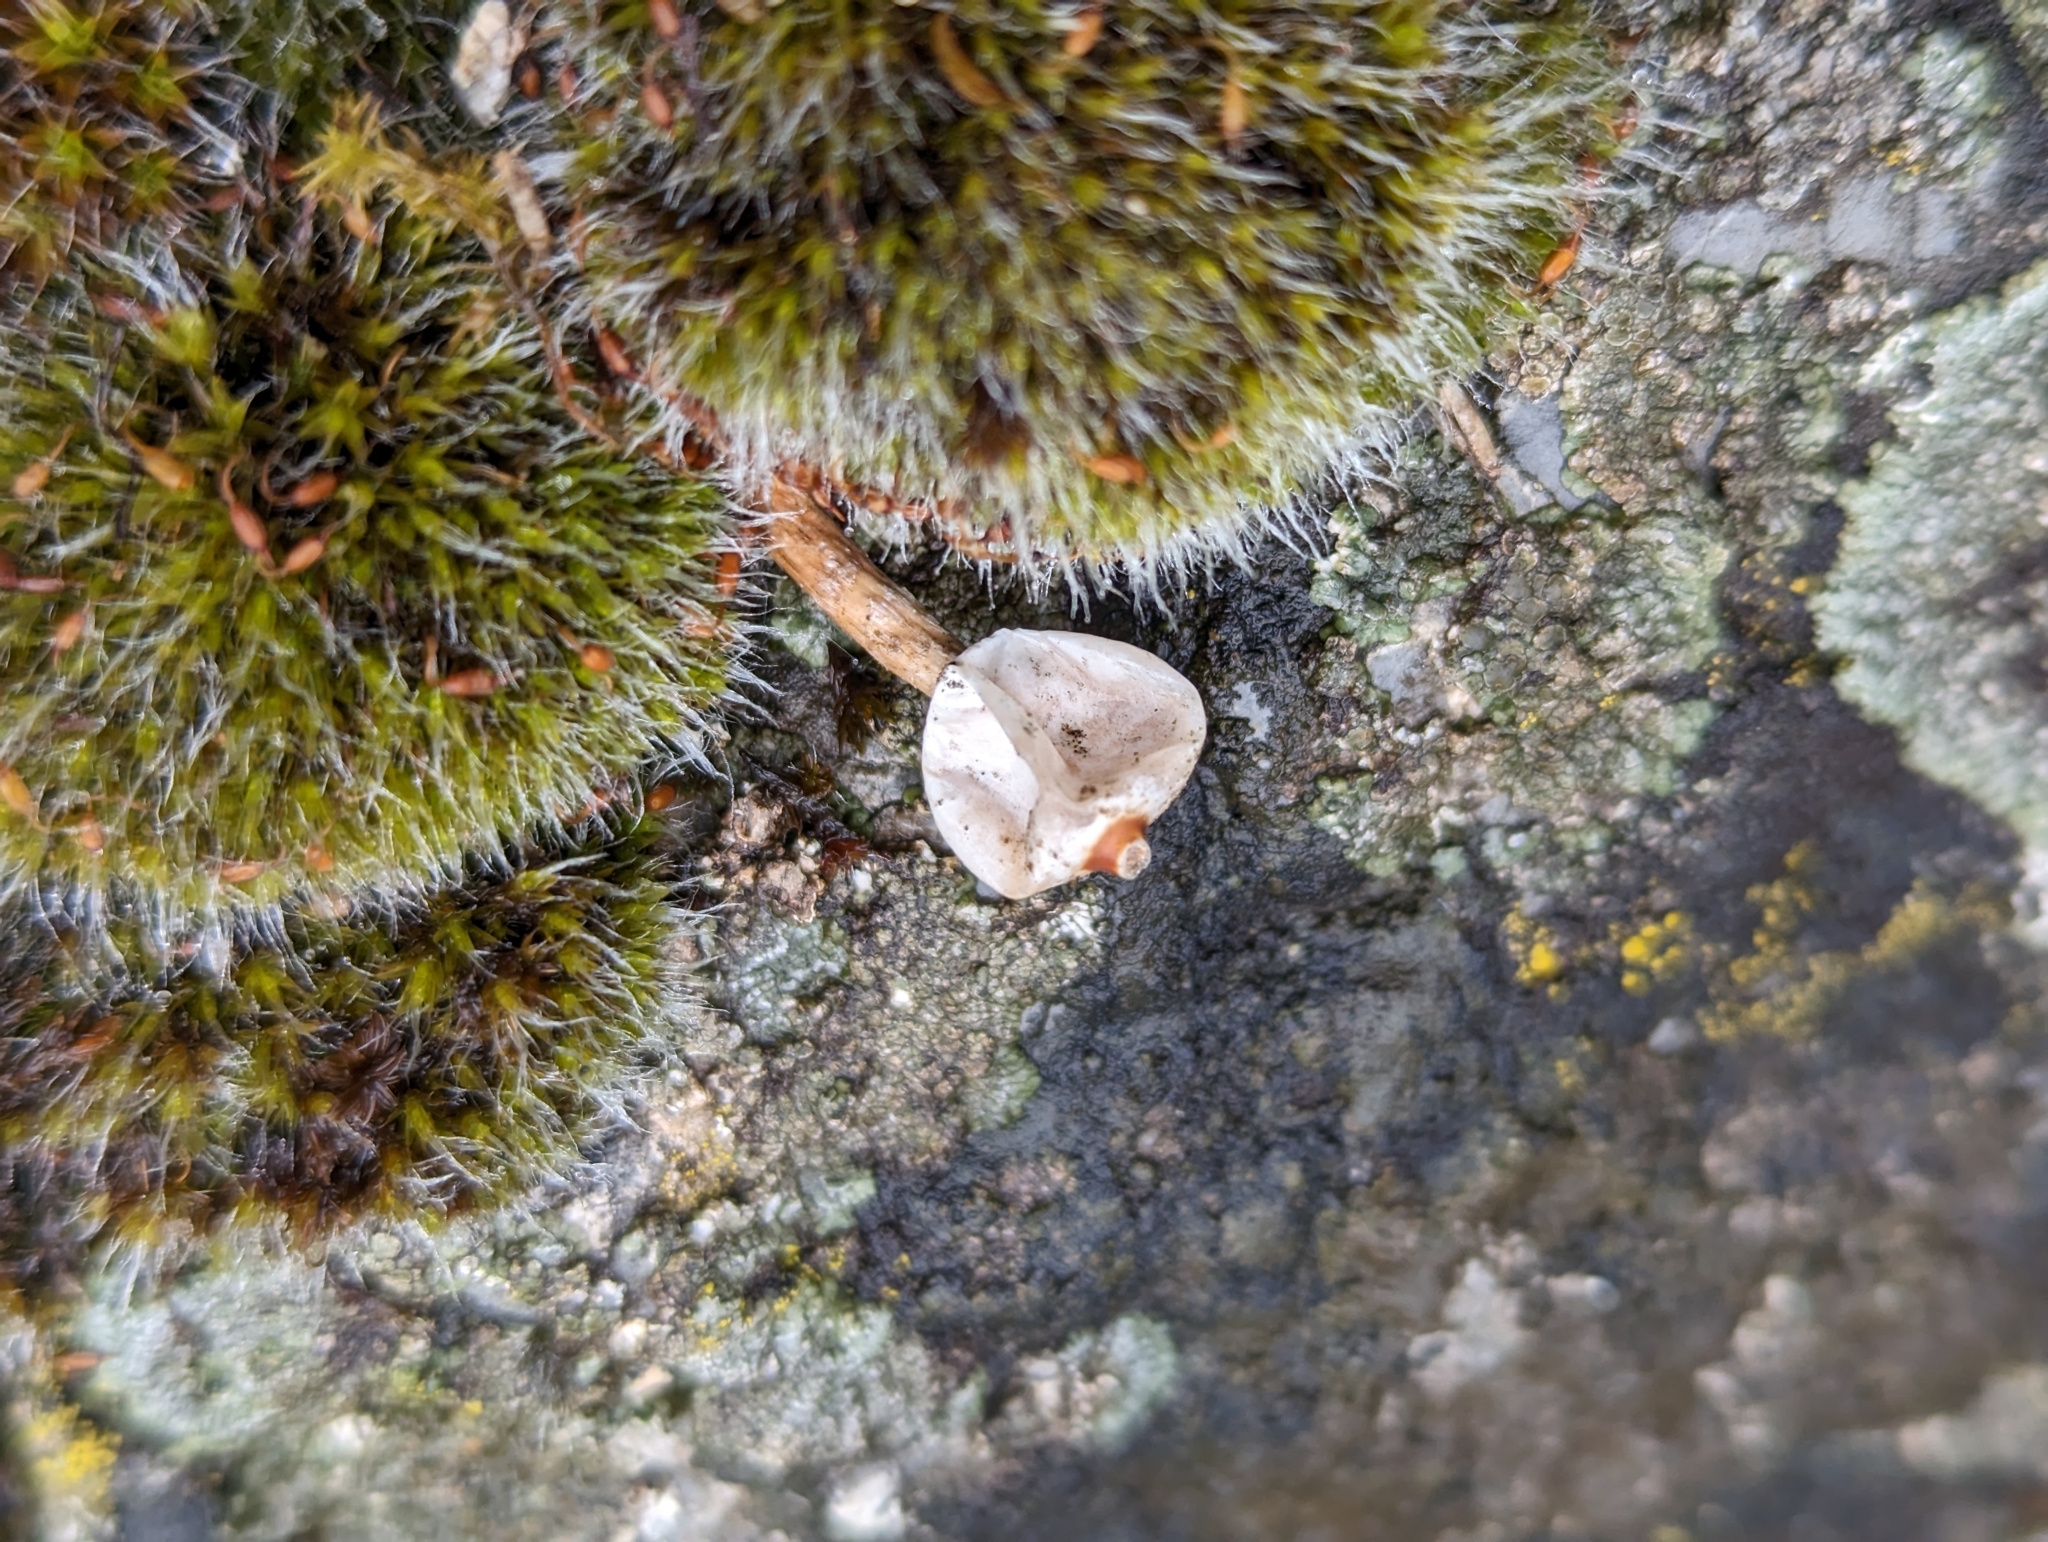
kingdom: Fungi
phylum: Basidiomycota
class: Agaricomycetes
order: Agaricales
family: Agaricaceae
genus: Tulostoma
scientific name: Tulostoma brumale
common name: Winter stalk puffball
